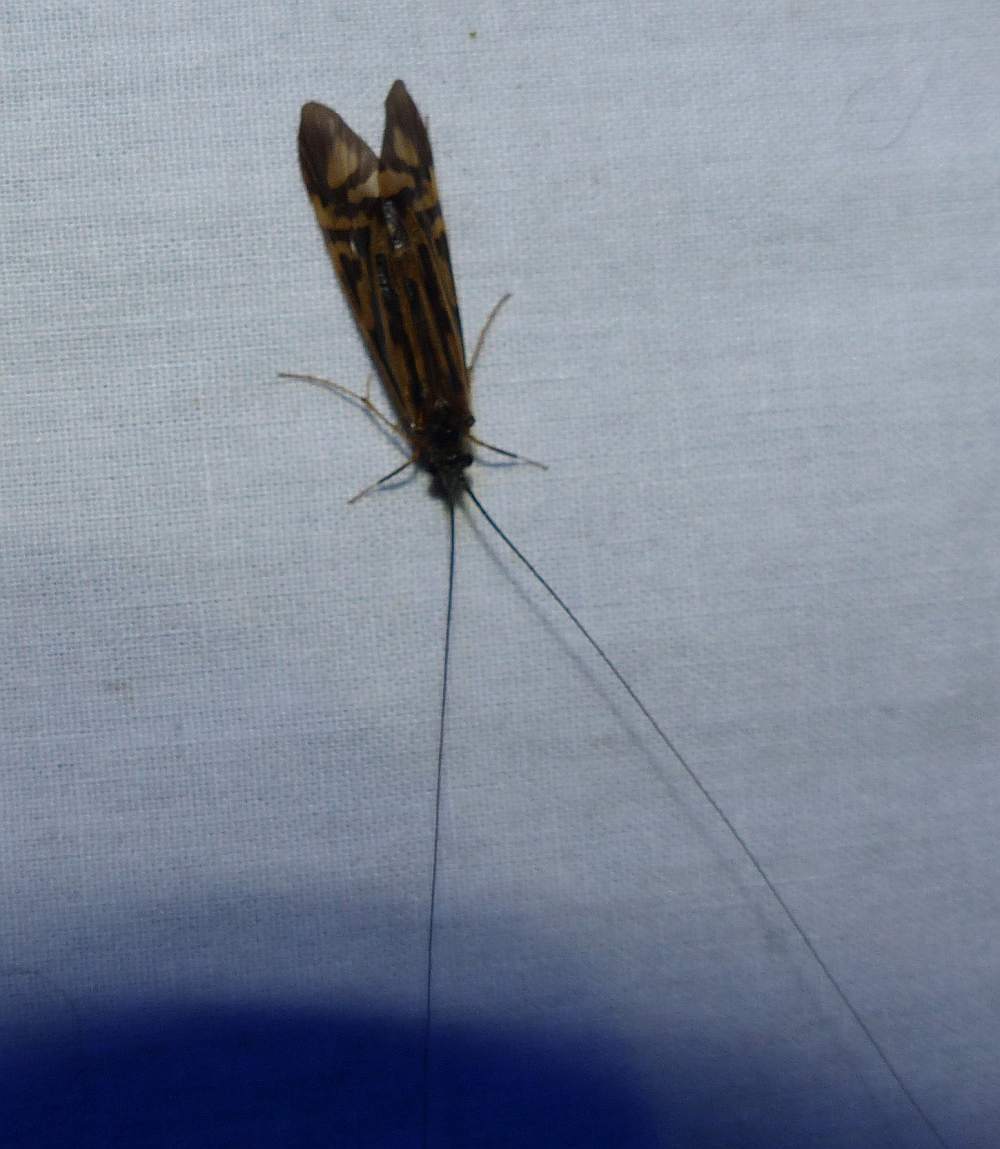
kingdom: Animalia
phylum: Arthropoda
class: Insecta
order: Trichoptera
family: Hydropsychidae
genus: Macrostemum
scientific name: Macrostemum zebratum
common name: Zebra caddisfly
